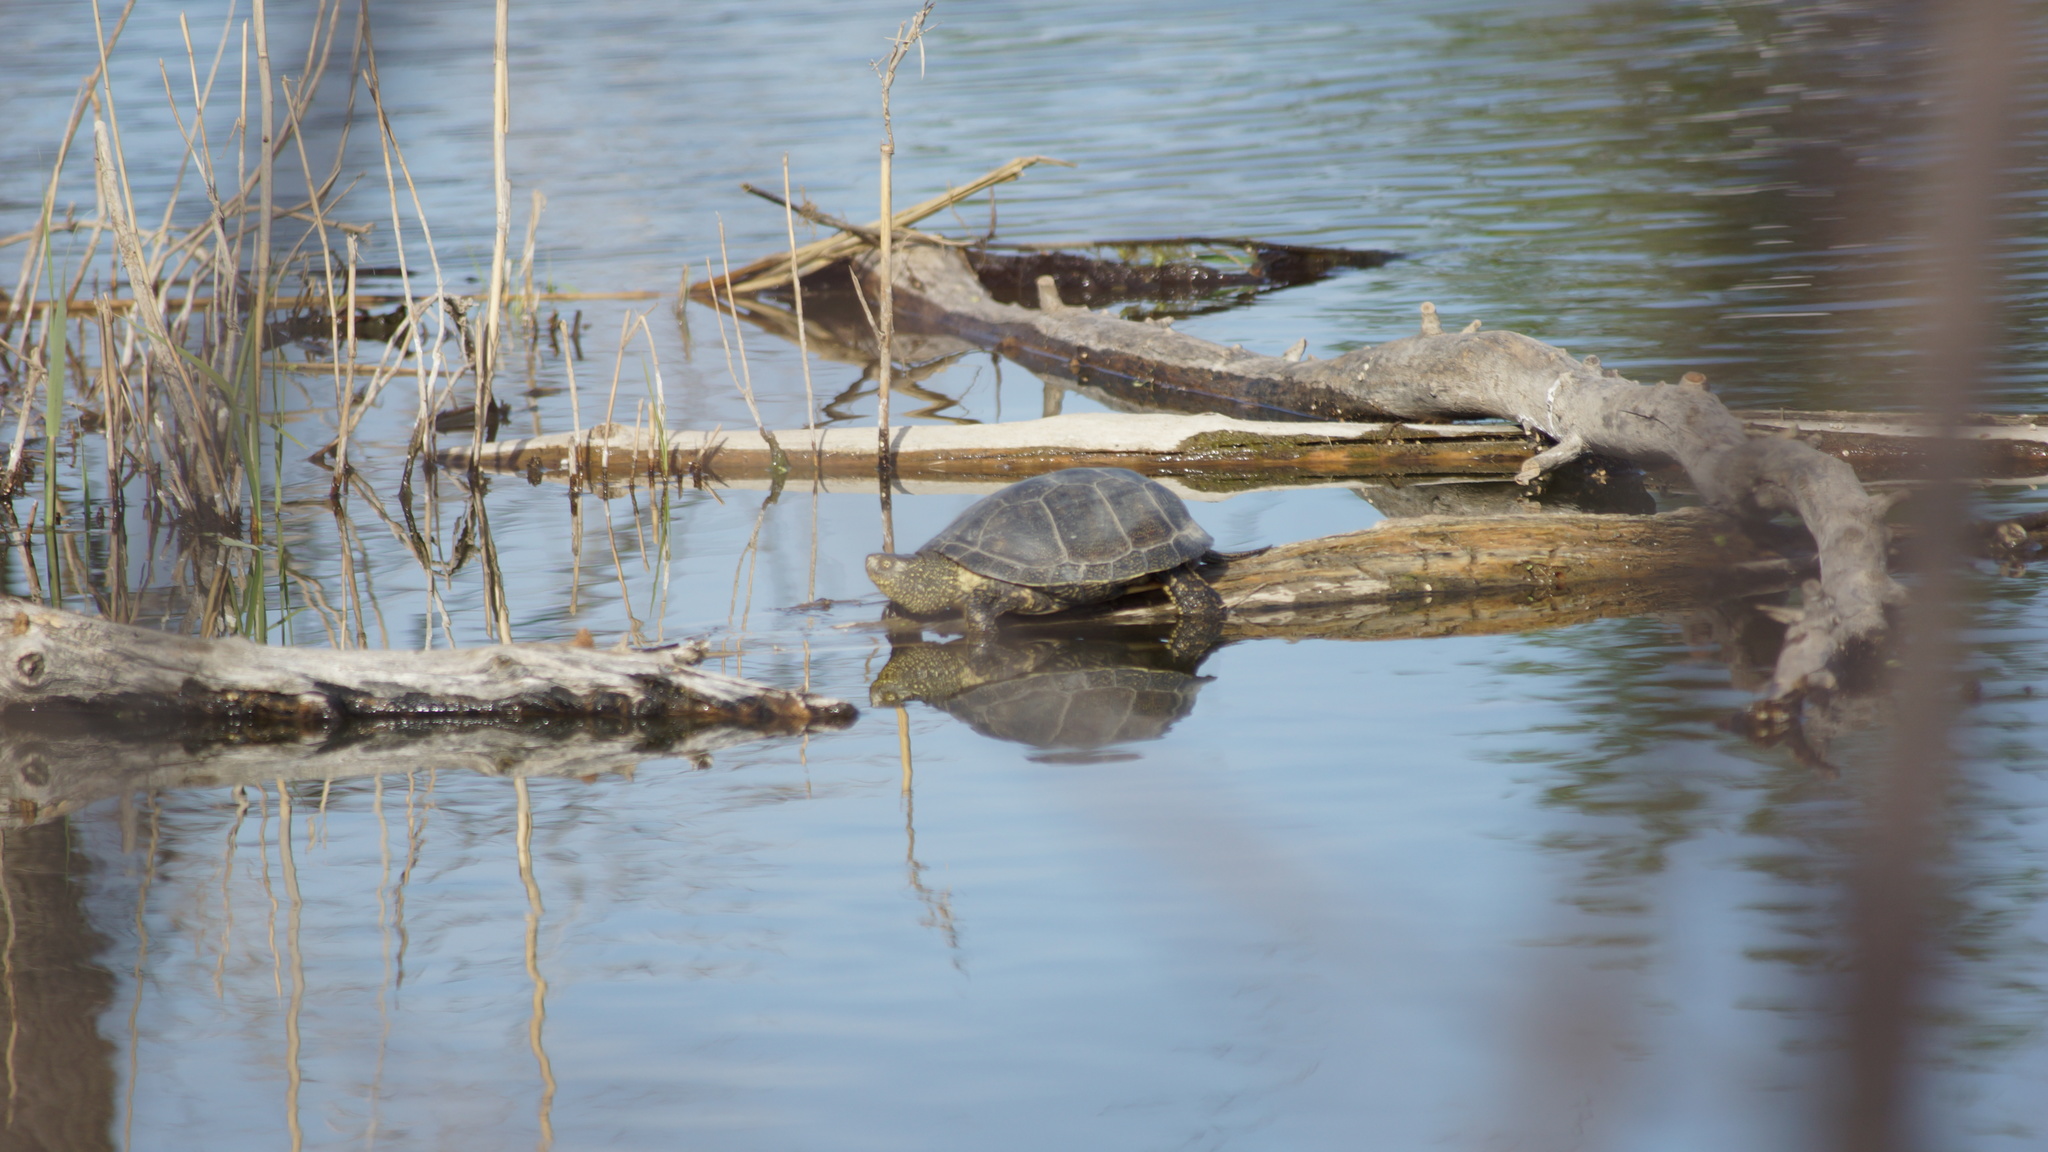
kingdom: Animalia
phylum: Chordata
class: Testudines
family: Emydidae
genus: Emys
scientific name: Emys orbicularis
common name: European pond turtle
